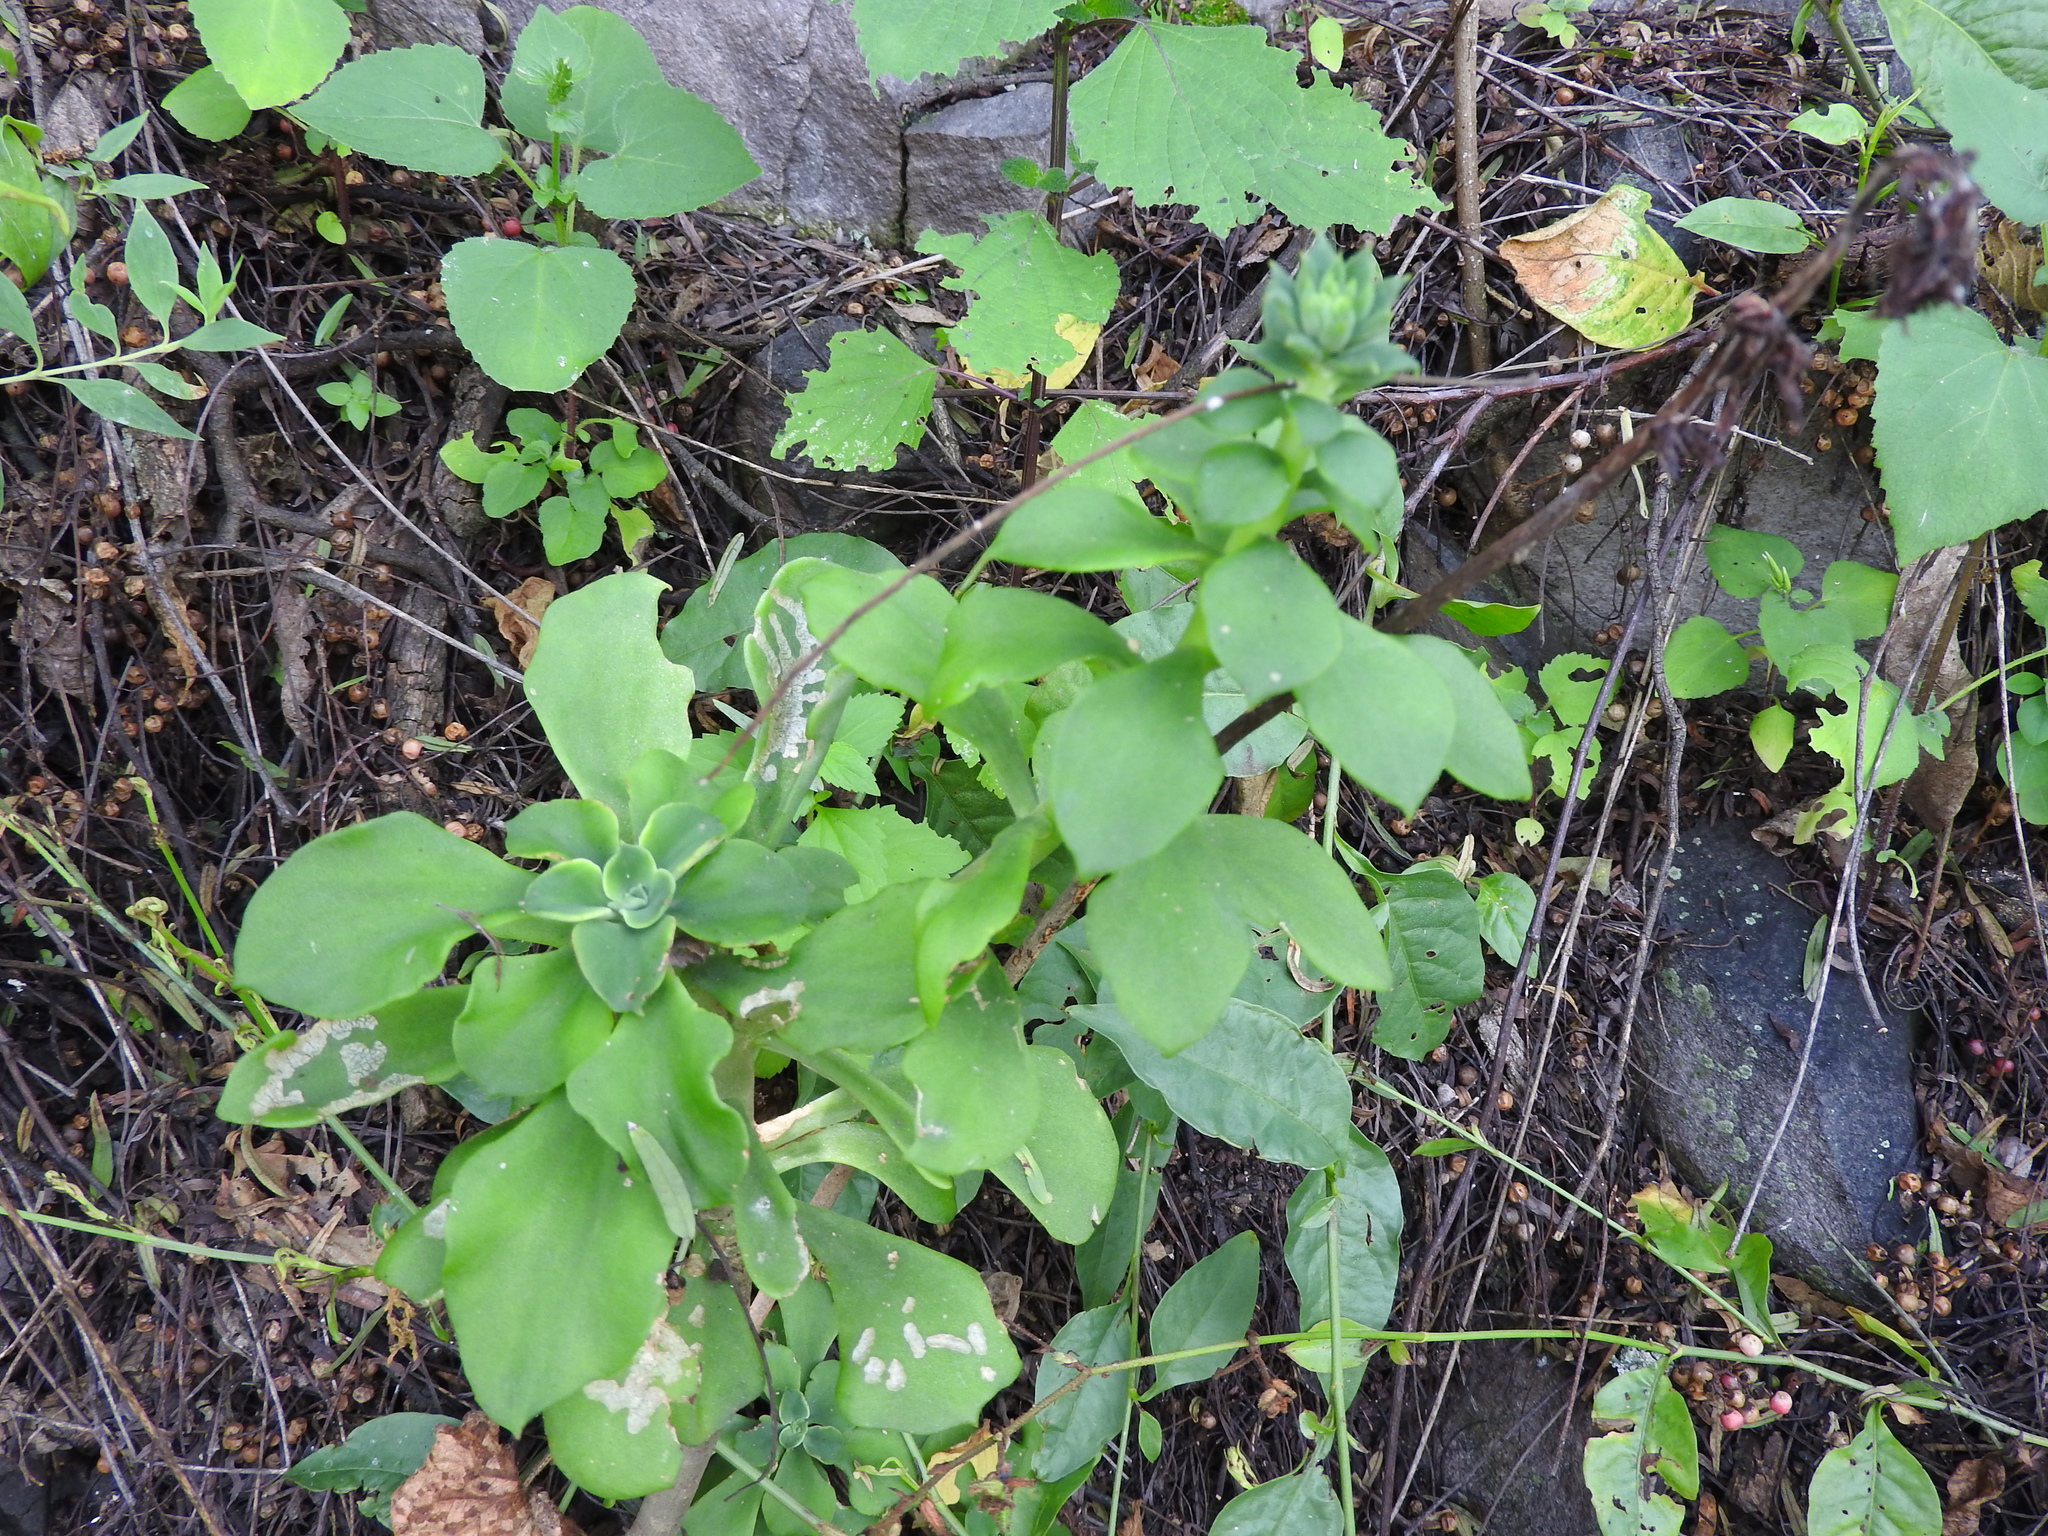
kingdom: Plantae
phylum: Tracheophyta
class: Magnoliopsida
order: Saxifragales
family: Crassulaceae
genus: Echeveria
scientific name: Echeveria chapalensis
